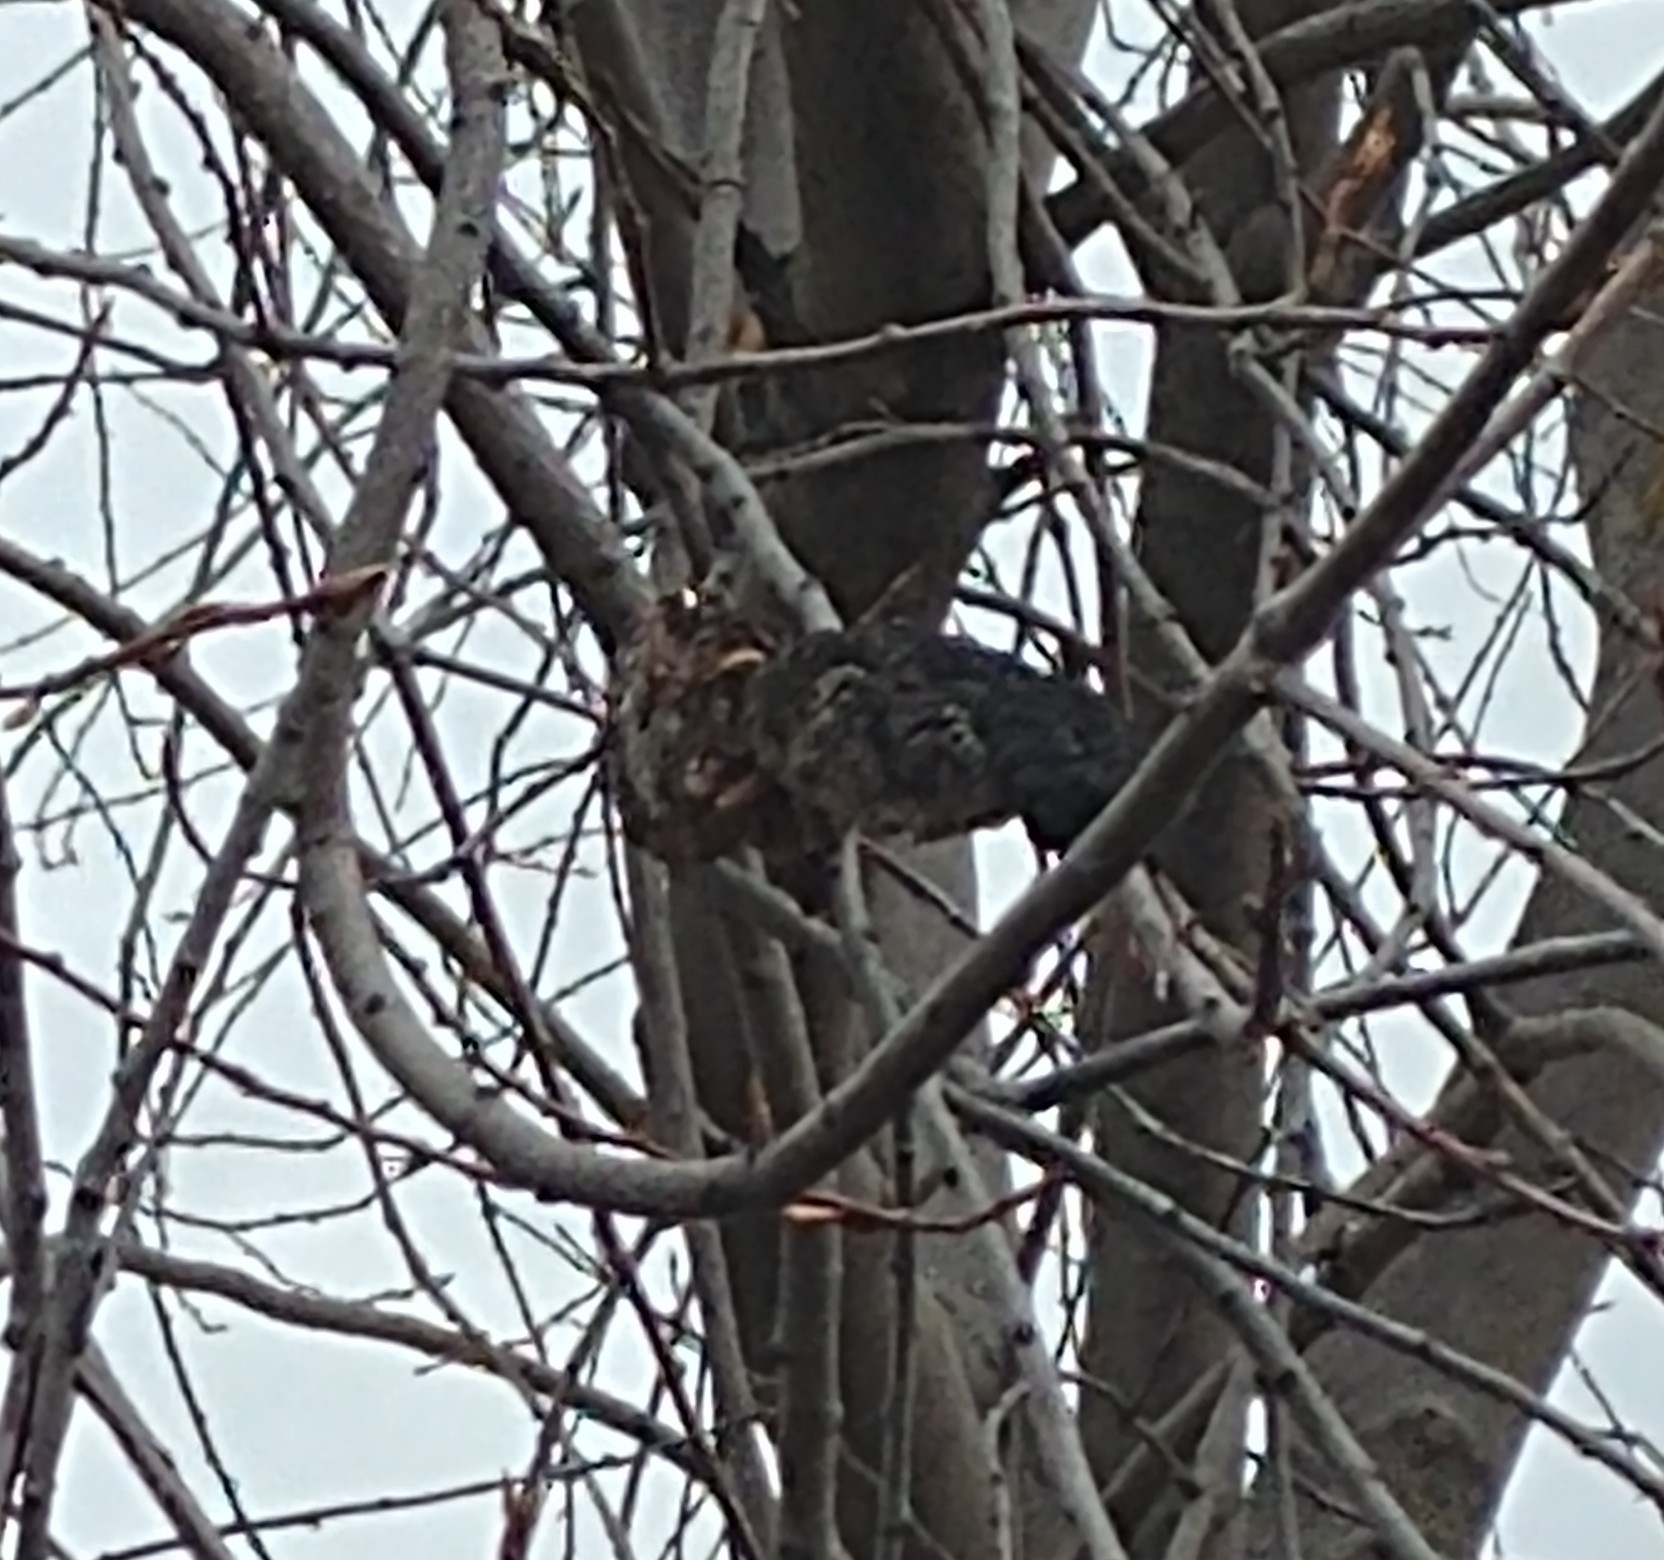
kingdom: Fungi
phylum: Ascomycota
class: Dothideomycetes
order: Venturiales
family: Venturiaceae
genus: Apiosporina
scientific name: Apiosporina morbosa
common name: Black knot
